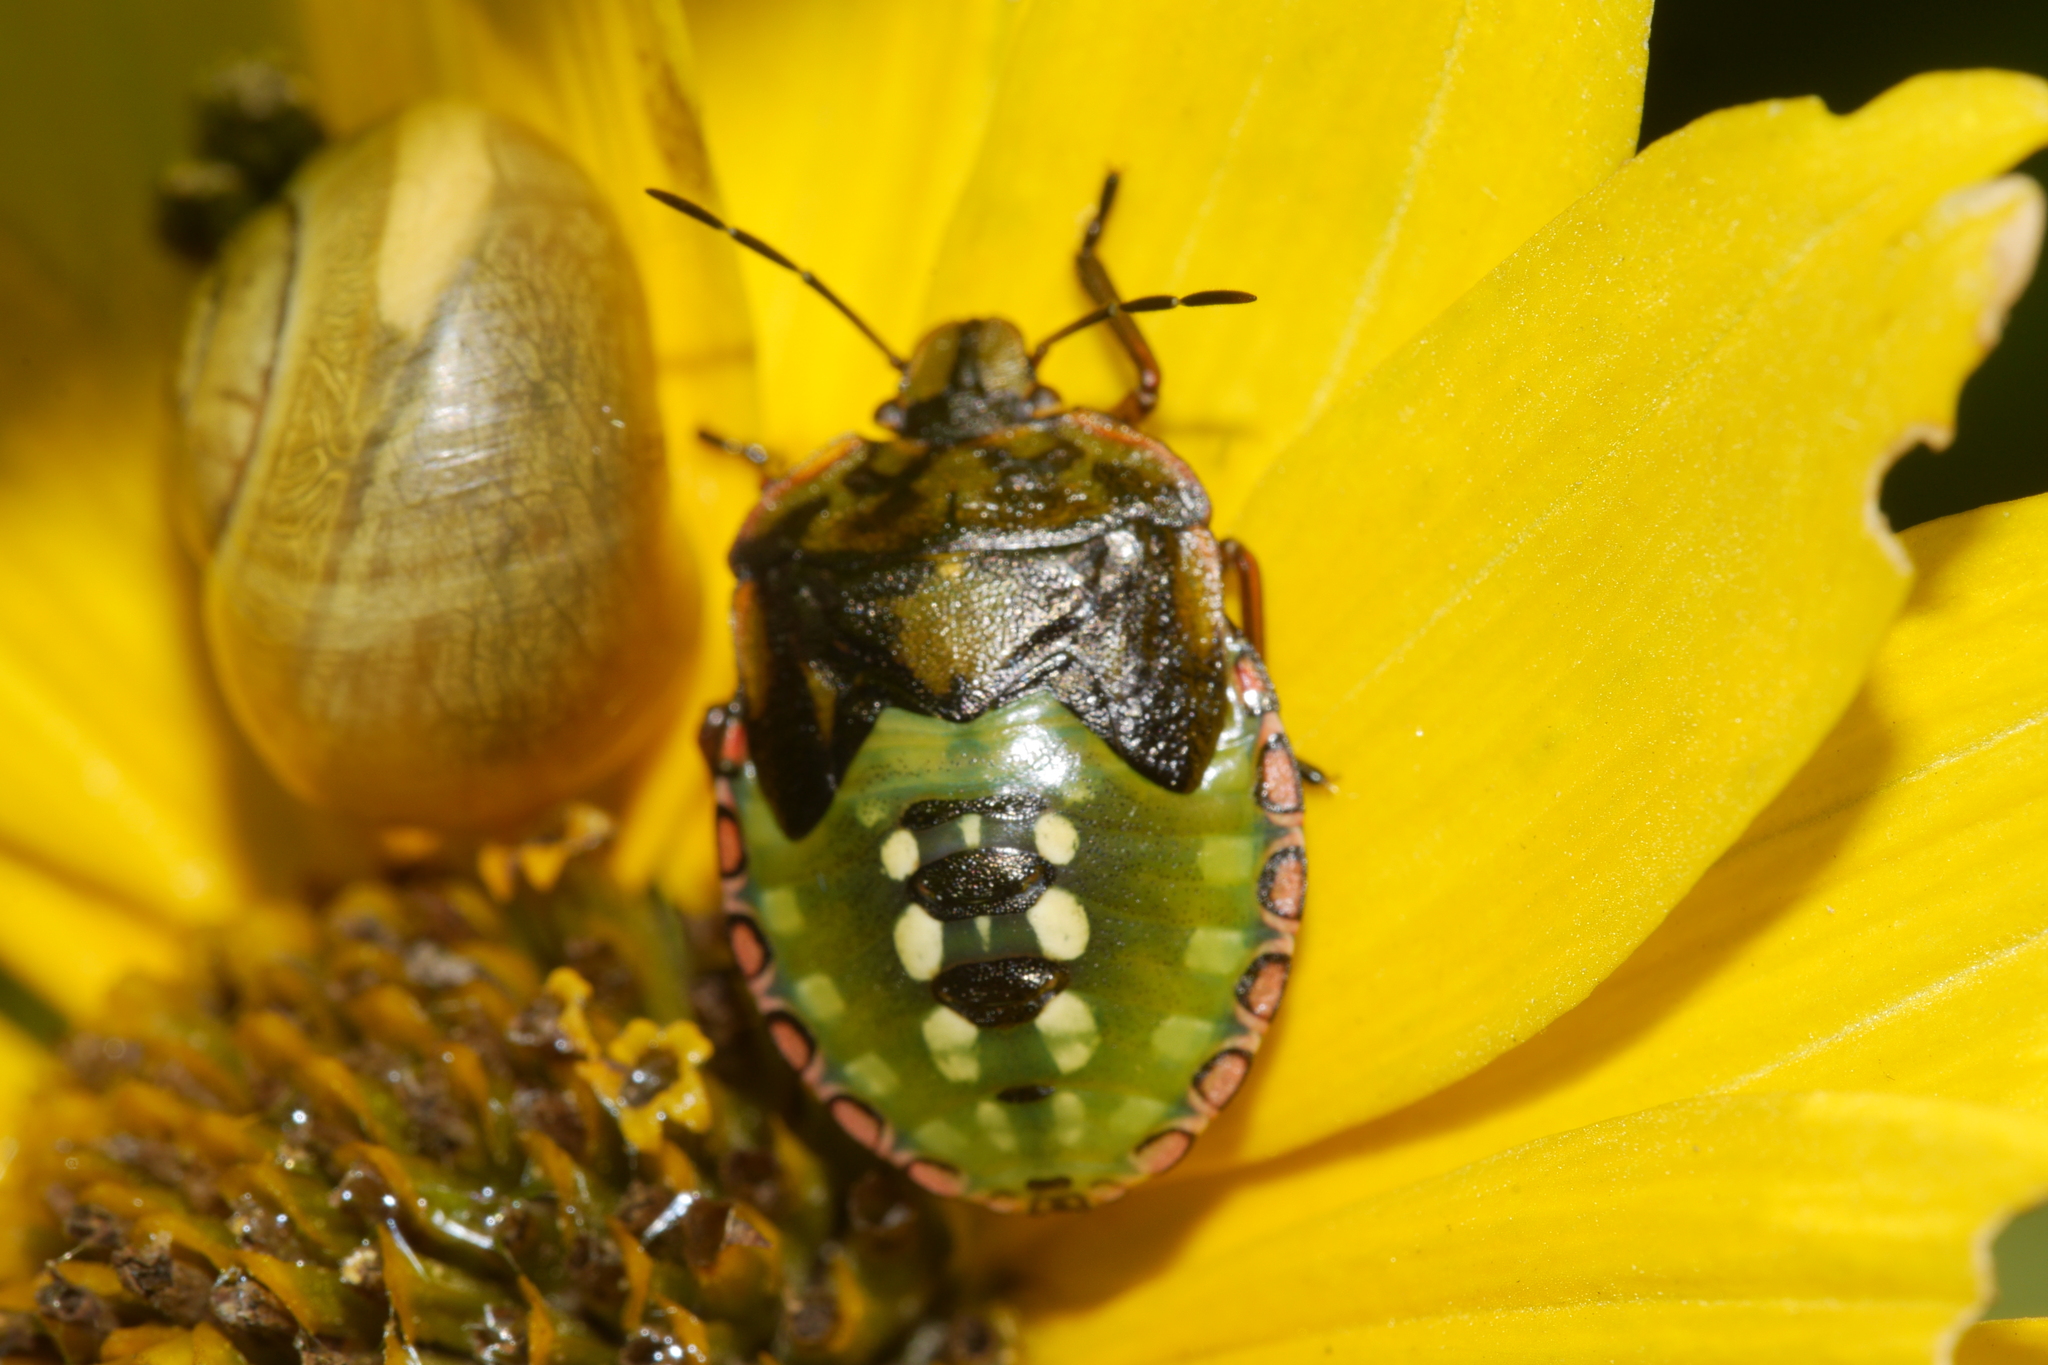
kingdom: Animalia
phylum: Arthropoda
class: Insecta
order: Hemiptera
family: Pentatomidae
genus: Nezara
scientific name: Nezara viridula
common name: Southern green stink bug
